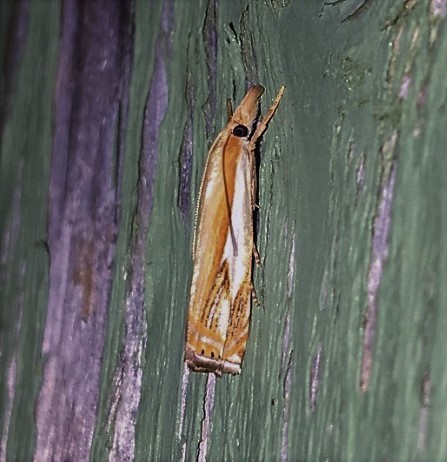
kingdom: Animalia
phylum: Arthropoda
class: Insecta
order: Lepidoptera
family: Crambidae
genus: Crambus
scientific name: Crambus agitatellus
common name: Double-banded grass-veneer
